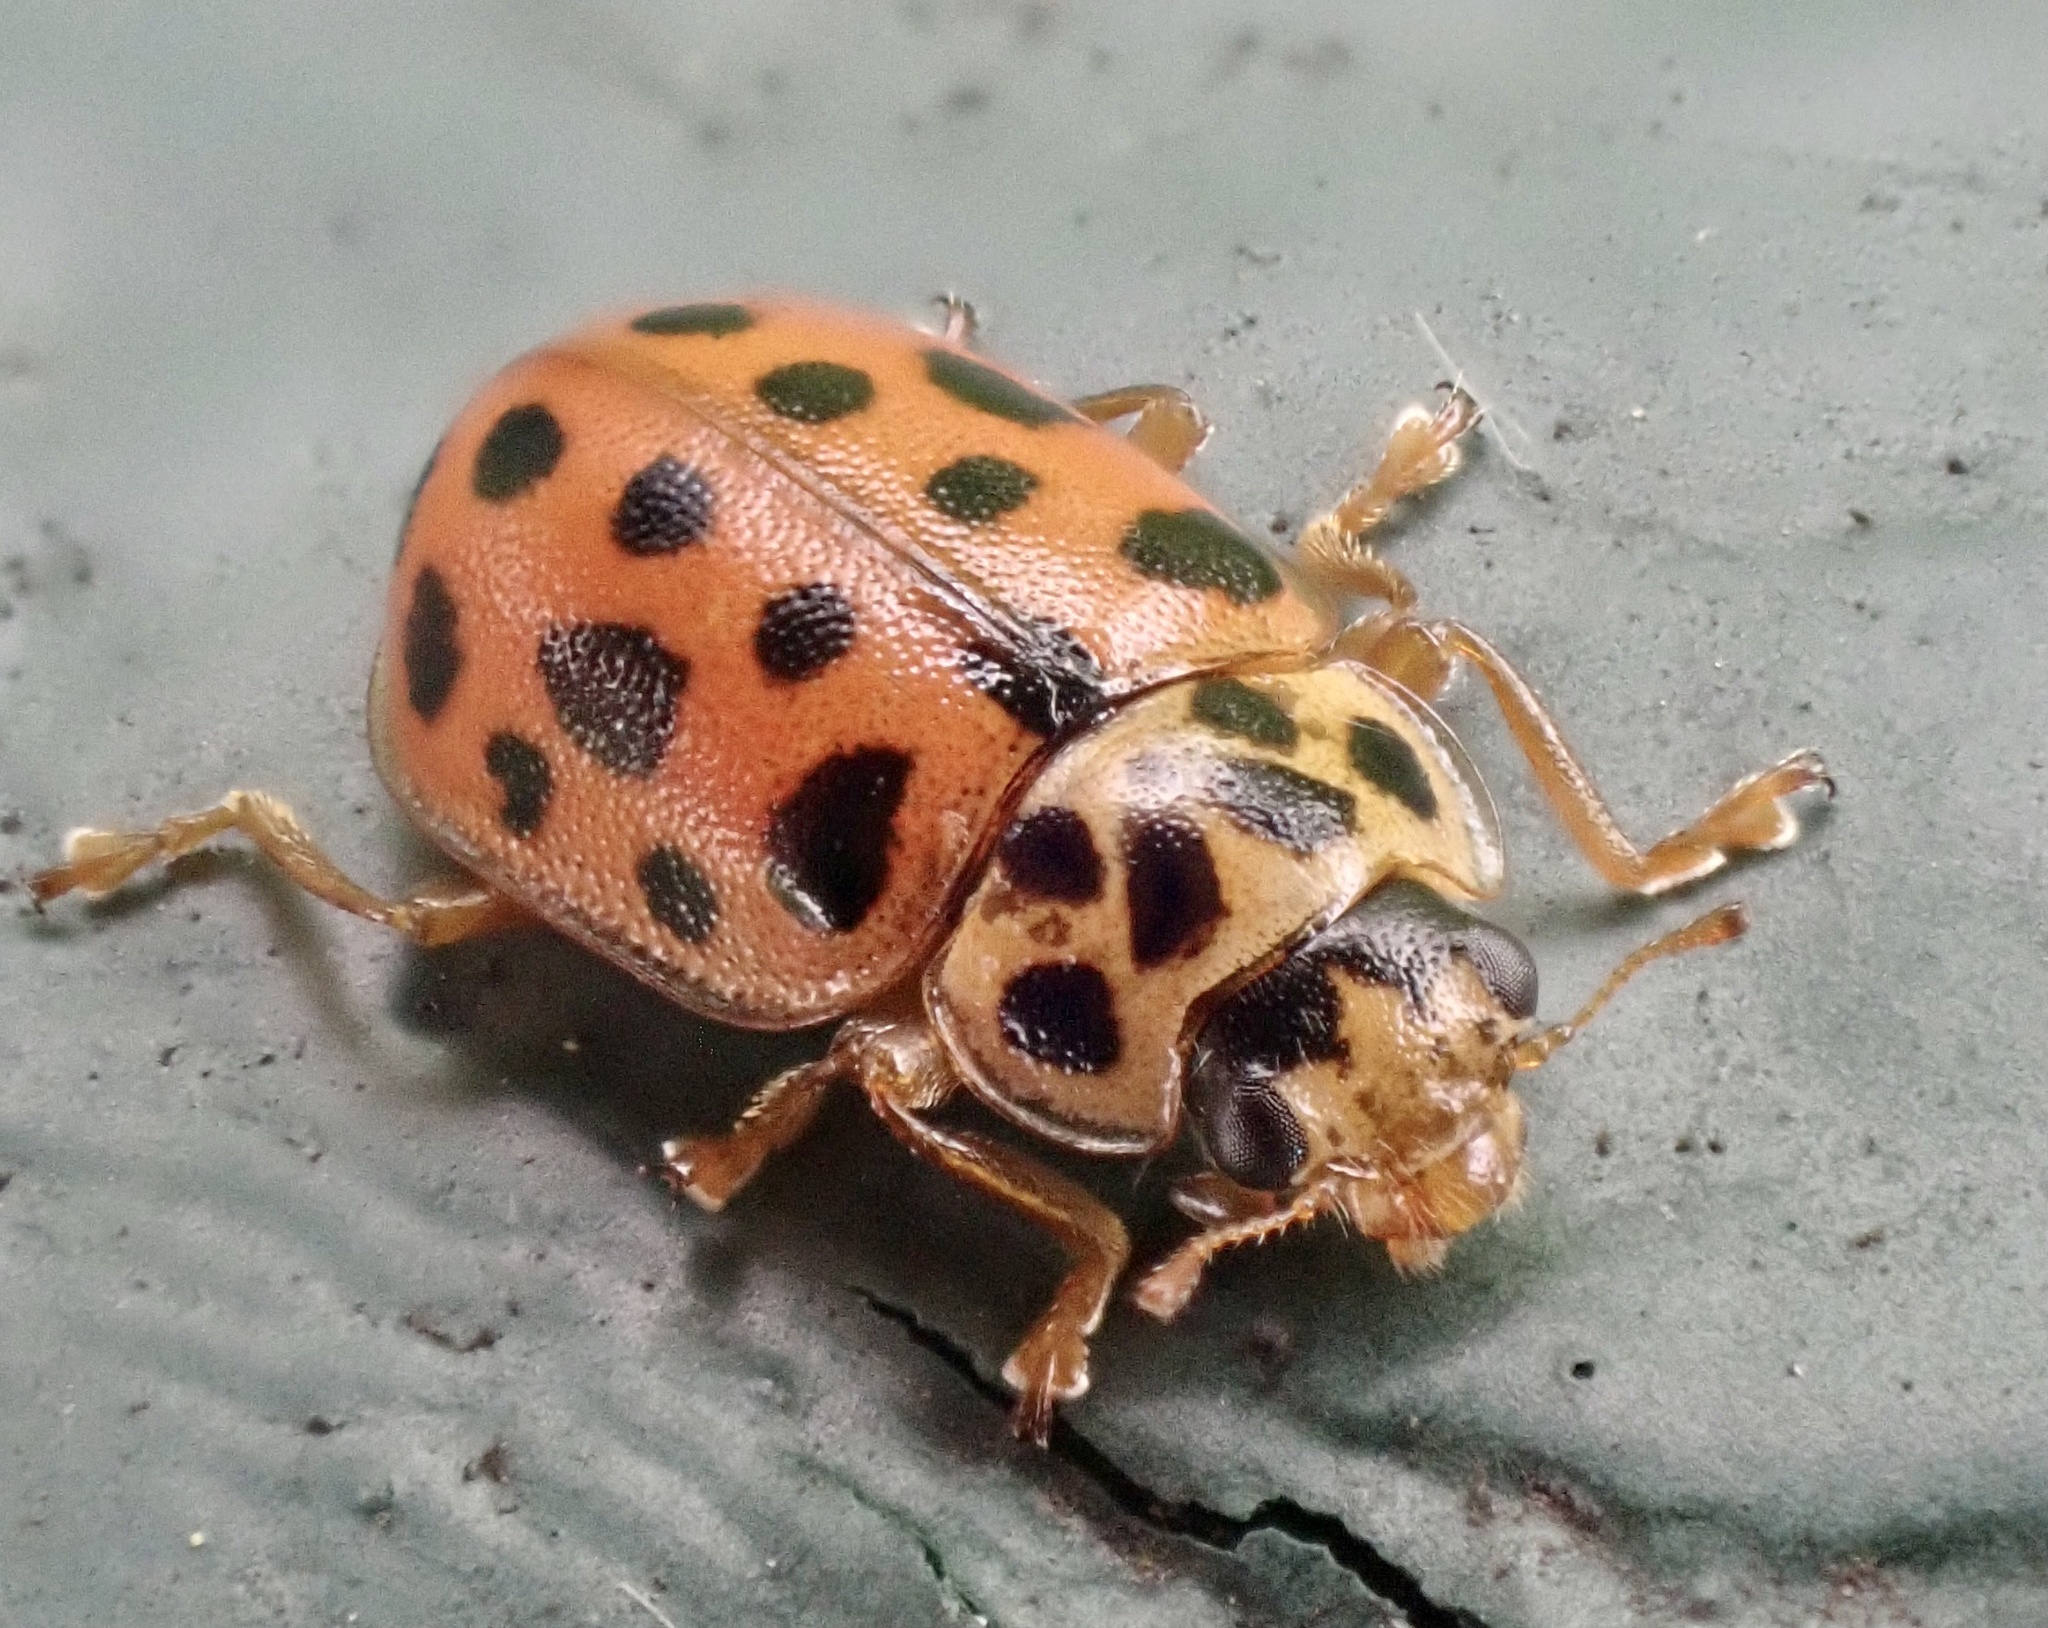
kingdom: Animalia
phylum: Arthropoda
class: Insecta
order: Coleoptera
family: Coccinellidae
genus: Anisosticta
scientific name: Anisosticta novemdecimpunctata
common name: Water ladybird
